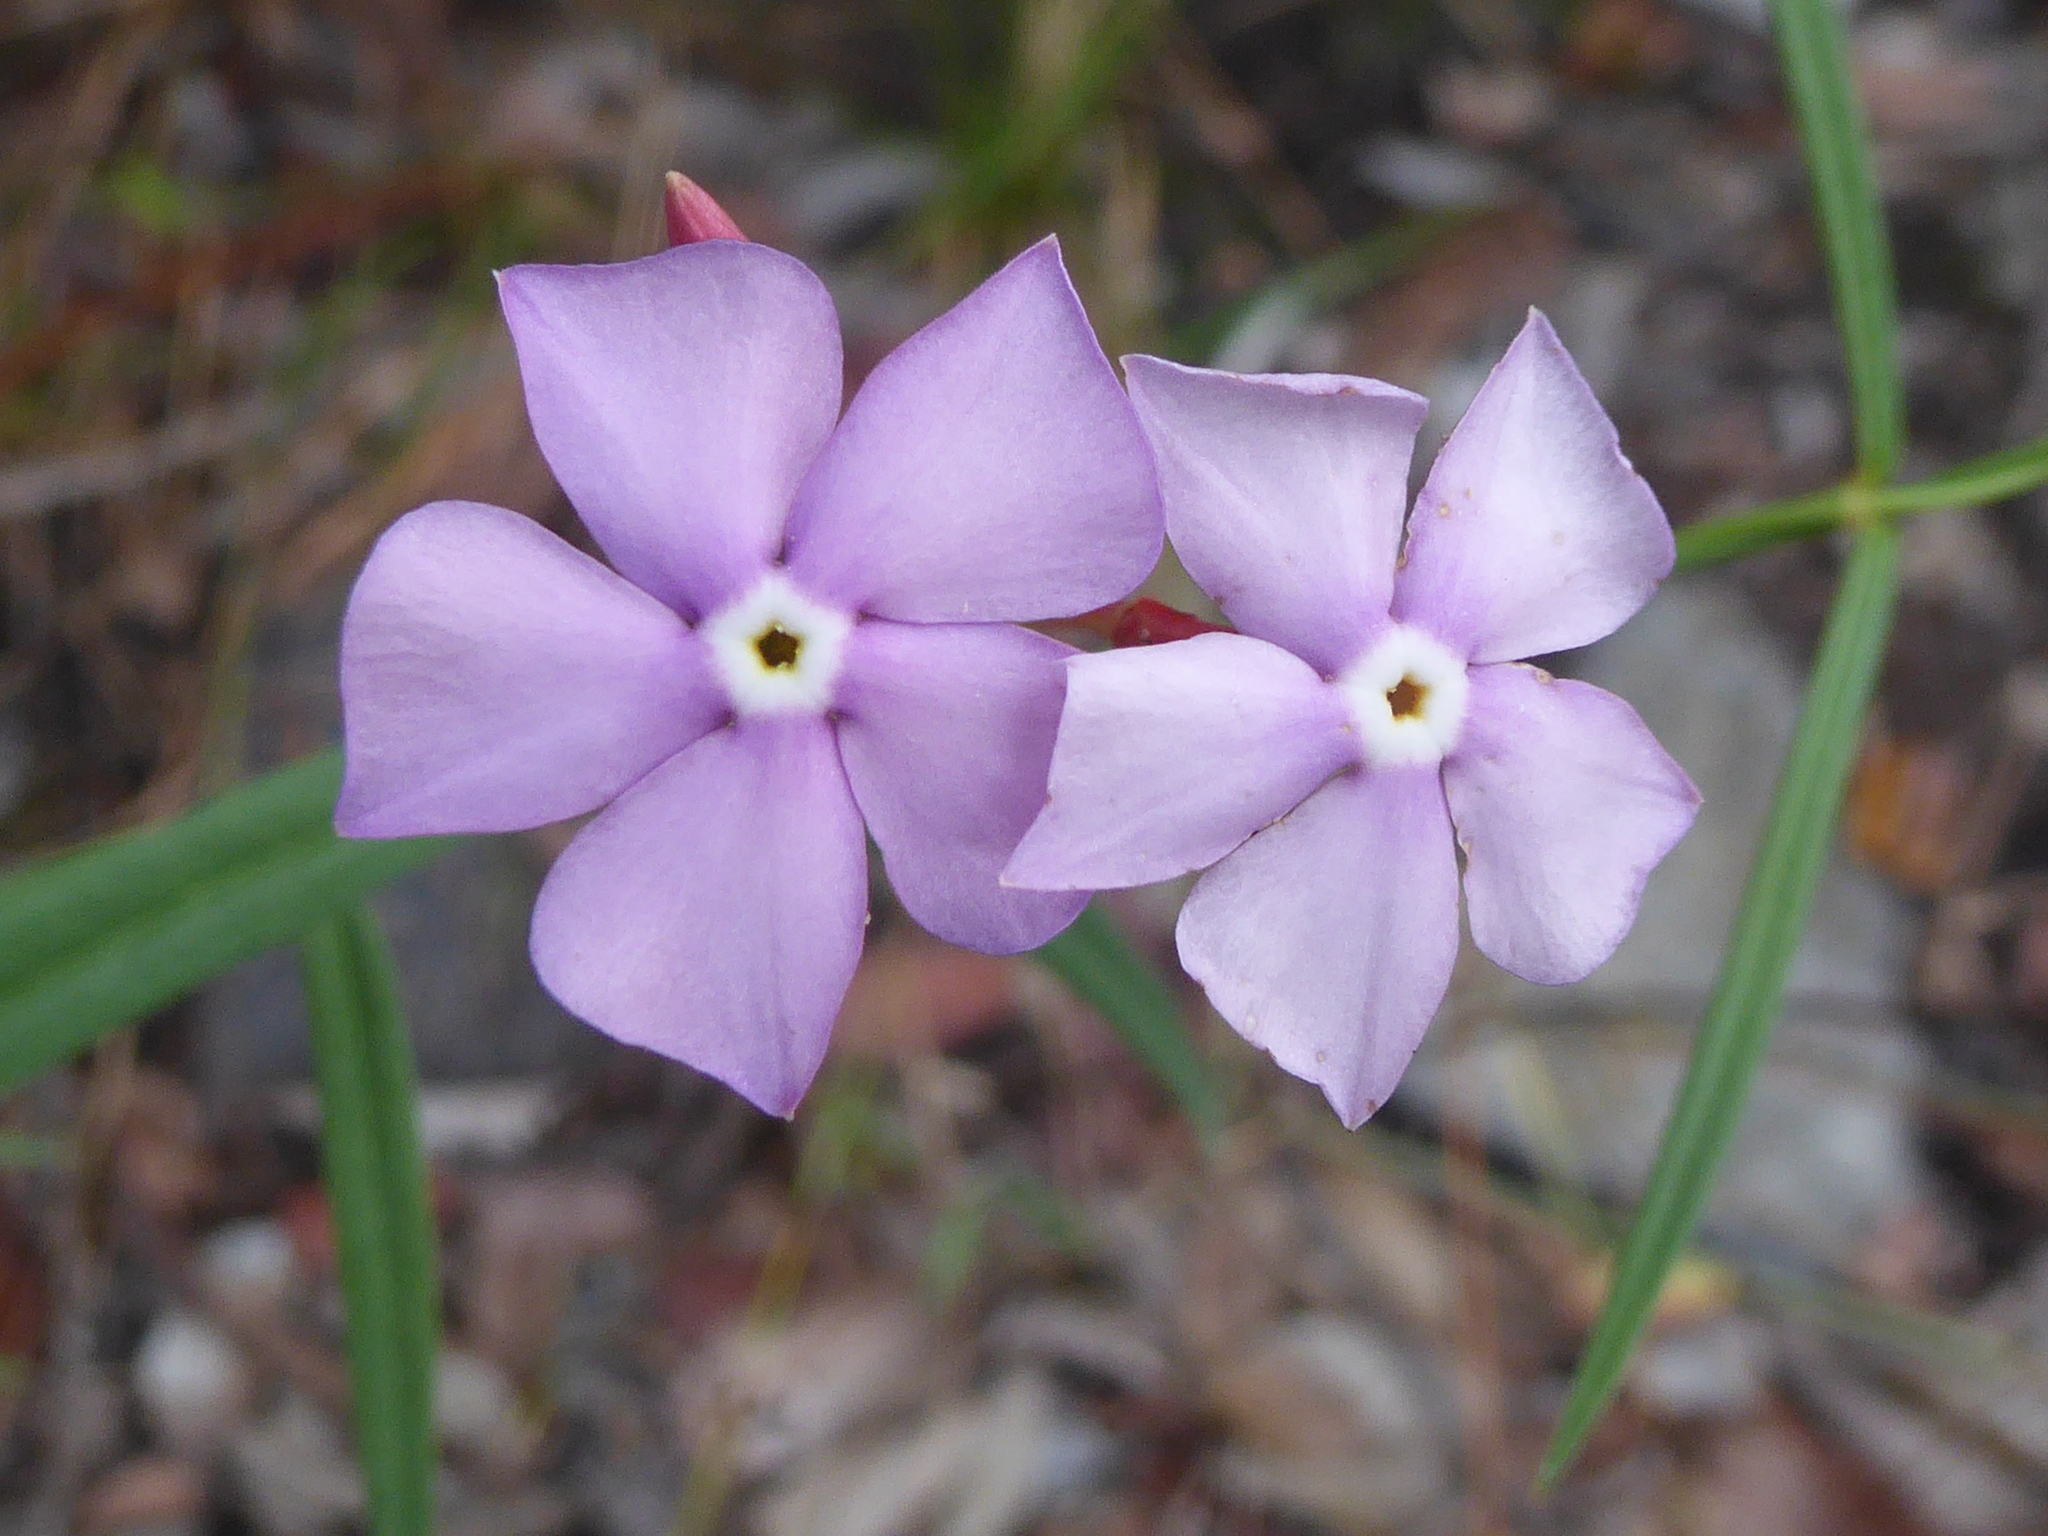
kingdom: Plantae
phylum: Tracheophyta
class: Magnoliopsida
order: Gentianales
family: Apocynaceae
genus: Mandevilla
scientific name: Mandevilla tenuifolia
